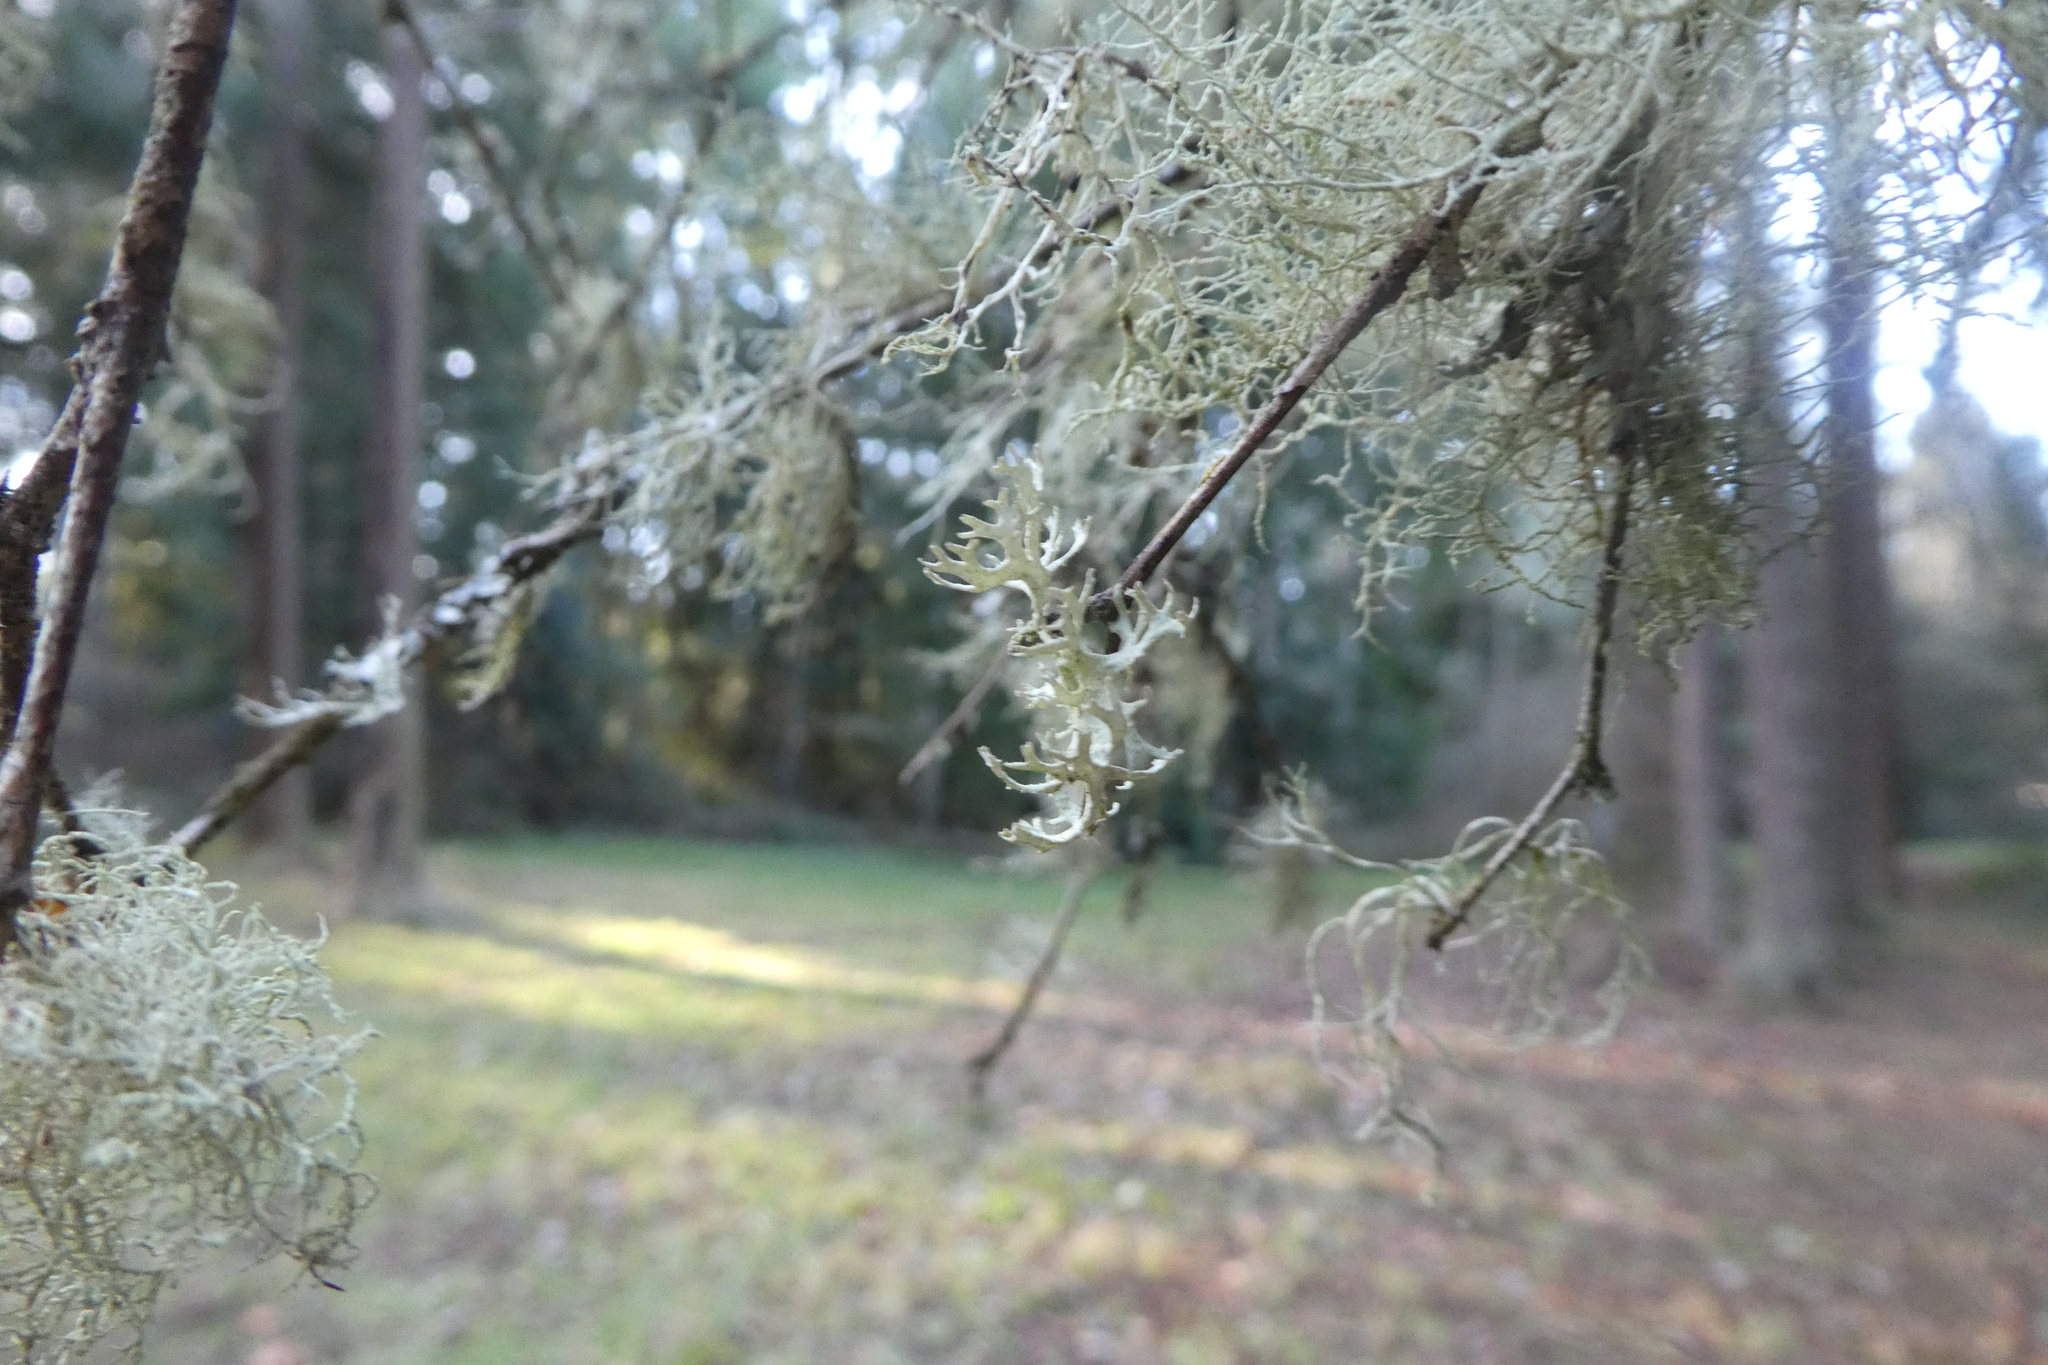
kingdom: Fungi
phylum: Ascomycota
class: Lecanoromycetes
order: Lecanorales
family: Parmeliaceae
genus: Evernia
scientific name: Evernia prunastri
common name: Oak moss
